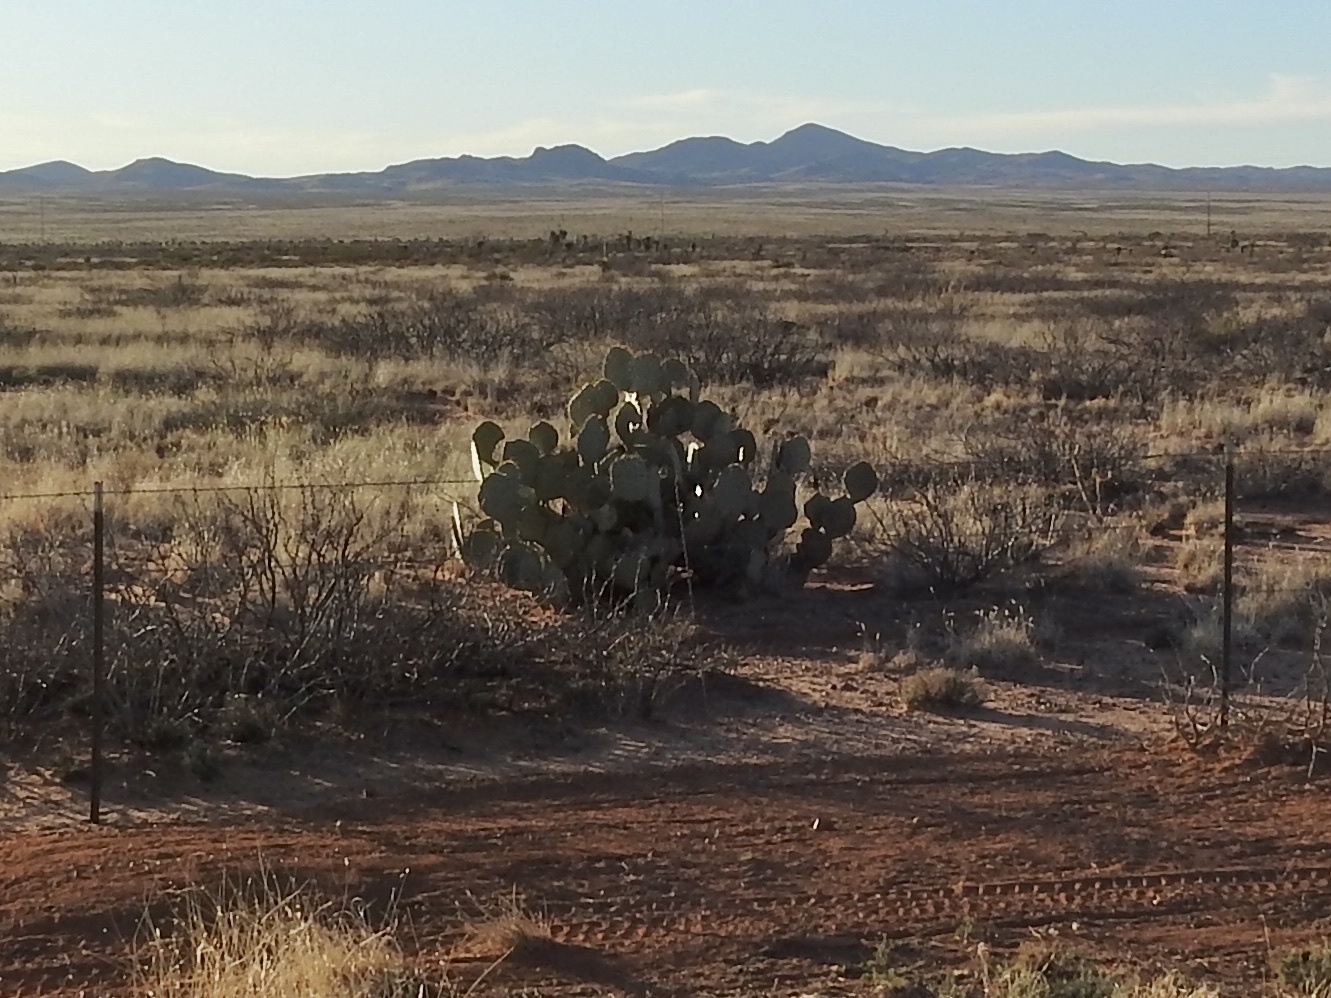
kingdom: Plantae
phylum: Tracheophyta
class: Magnoliopsida
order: Caryophyllales
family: Cactaceae
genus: Opuntia
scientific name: Opuntia engelmannii
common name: Cactus-apple
